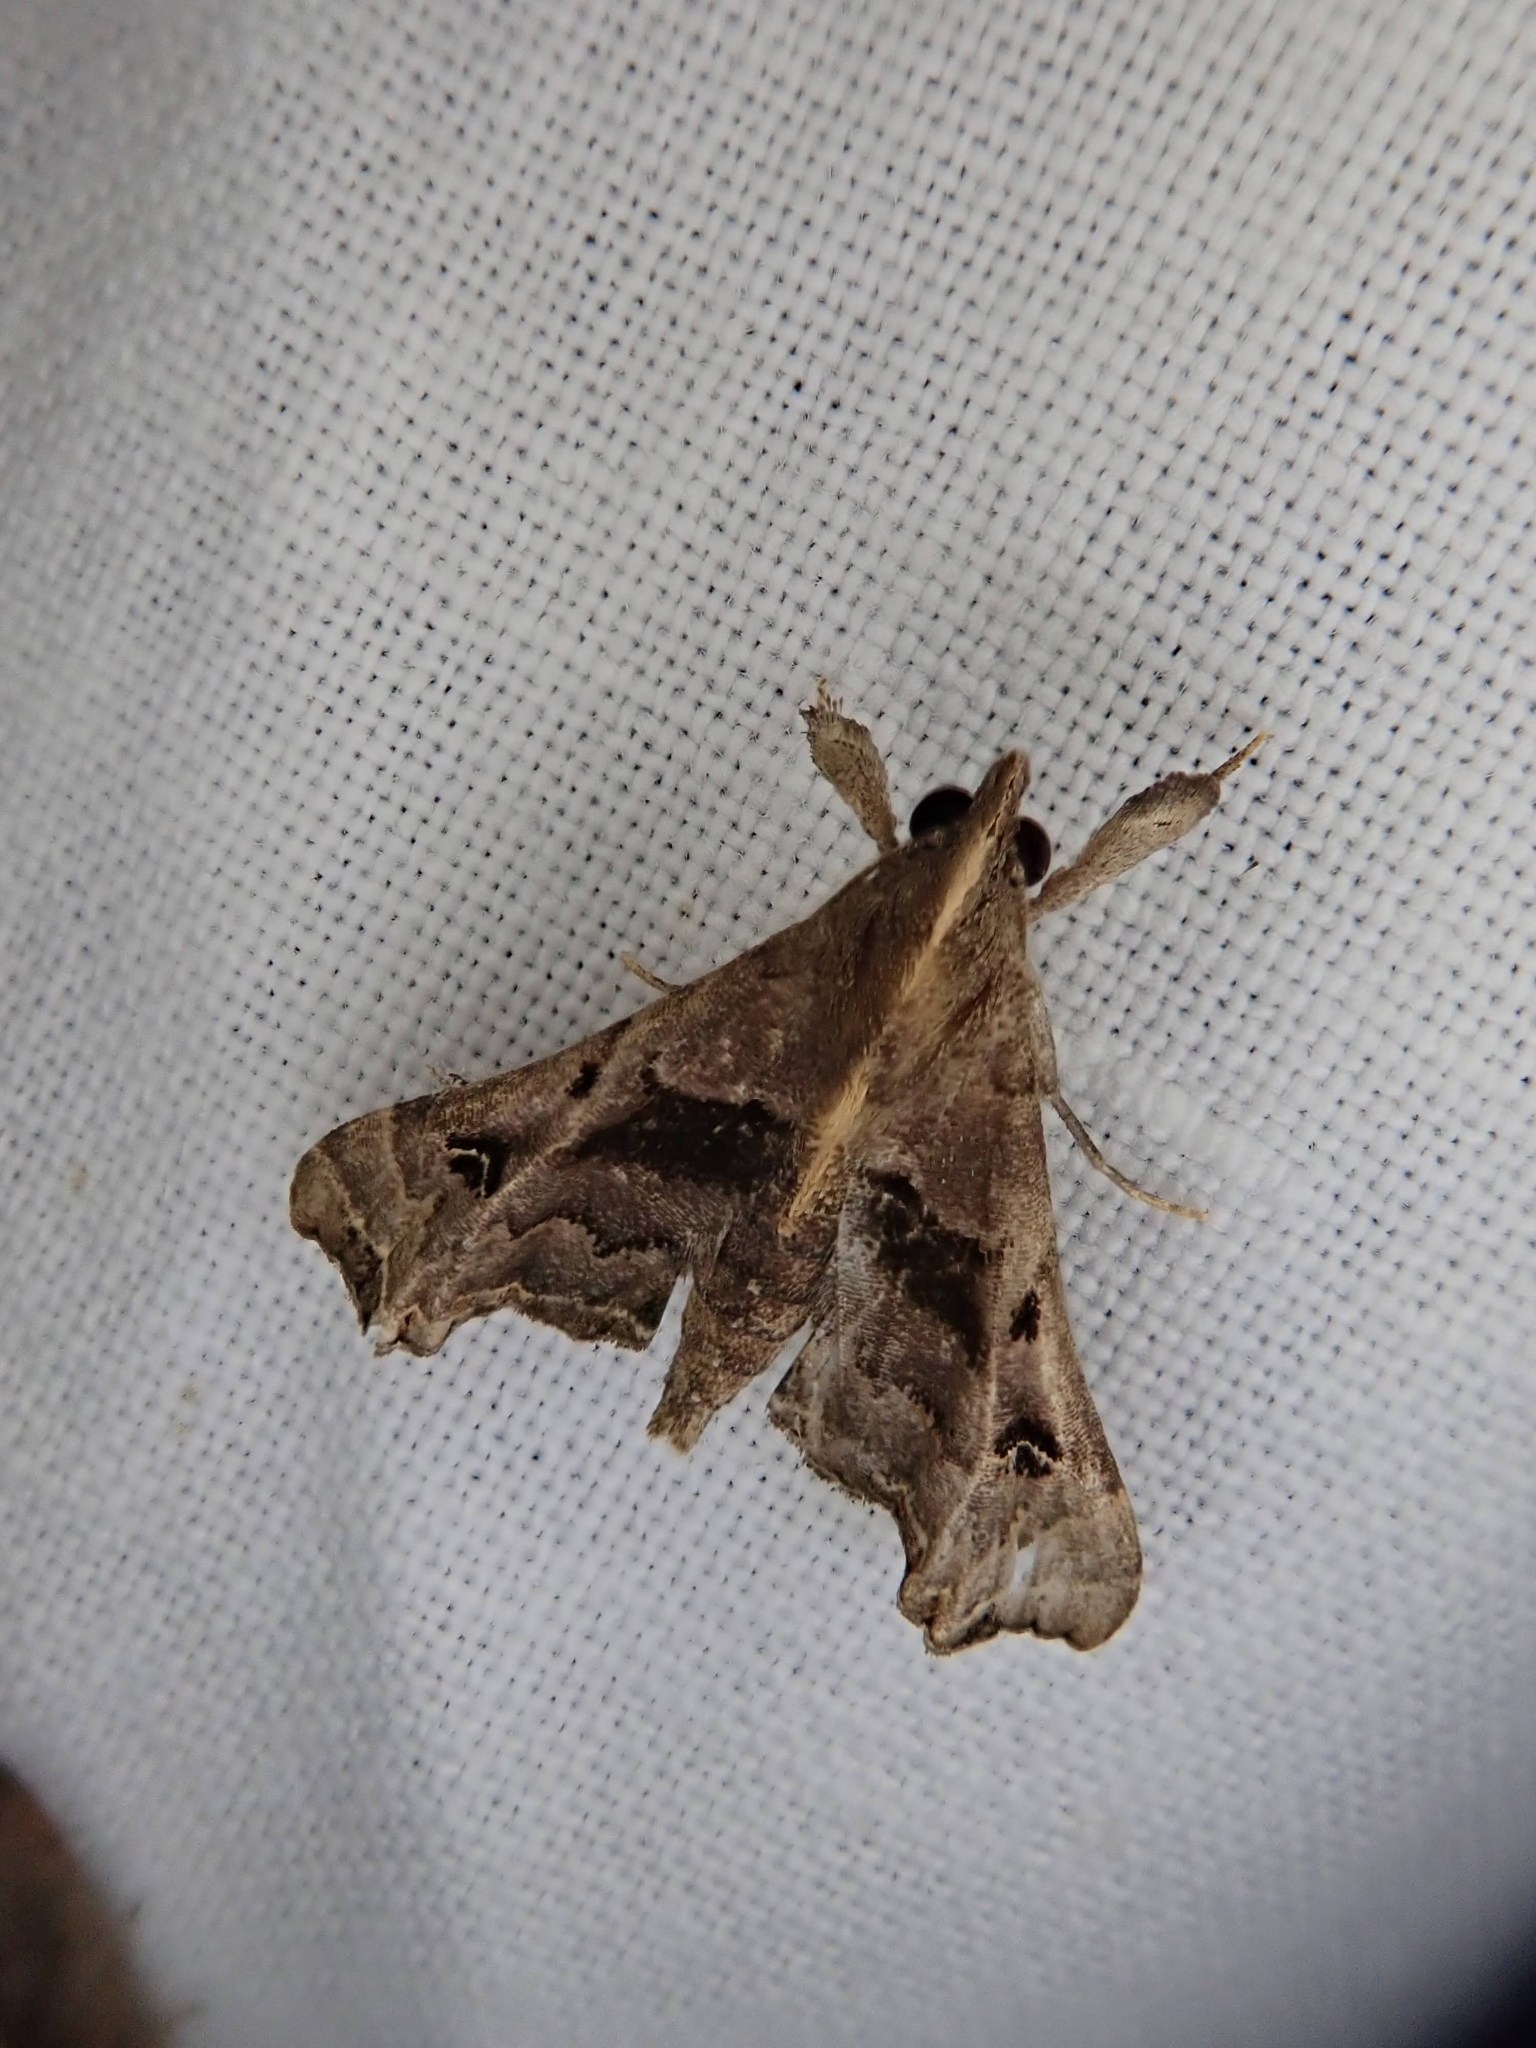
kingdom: Animalia
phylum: Arthropoda
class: Insecta
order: Lepidoptera
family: Erebidae
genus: Palthis
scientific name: Palthis asopialis
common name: Faint-spotted palthis moth
